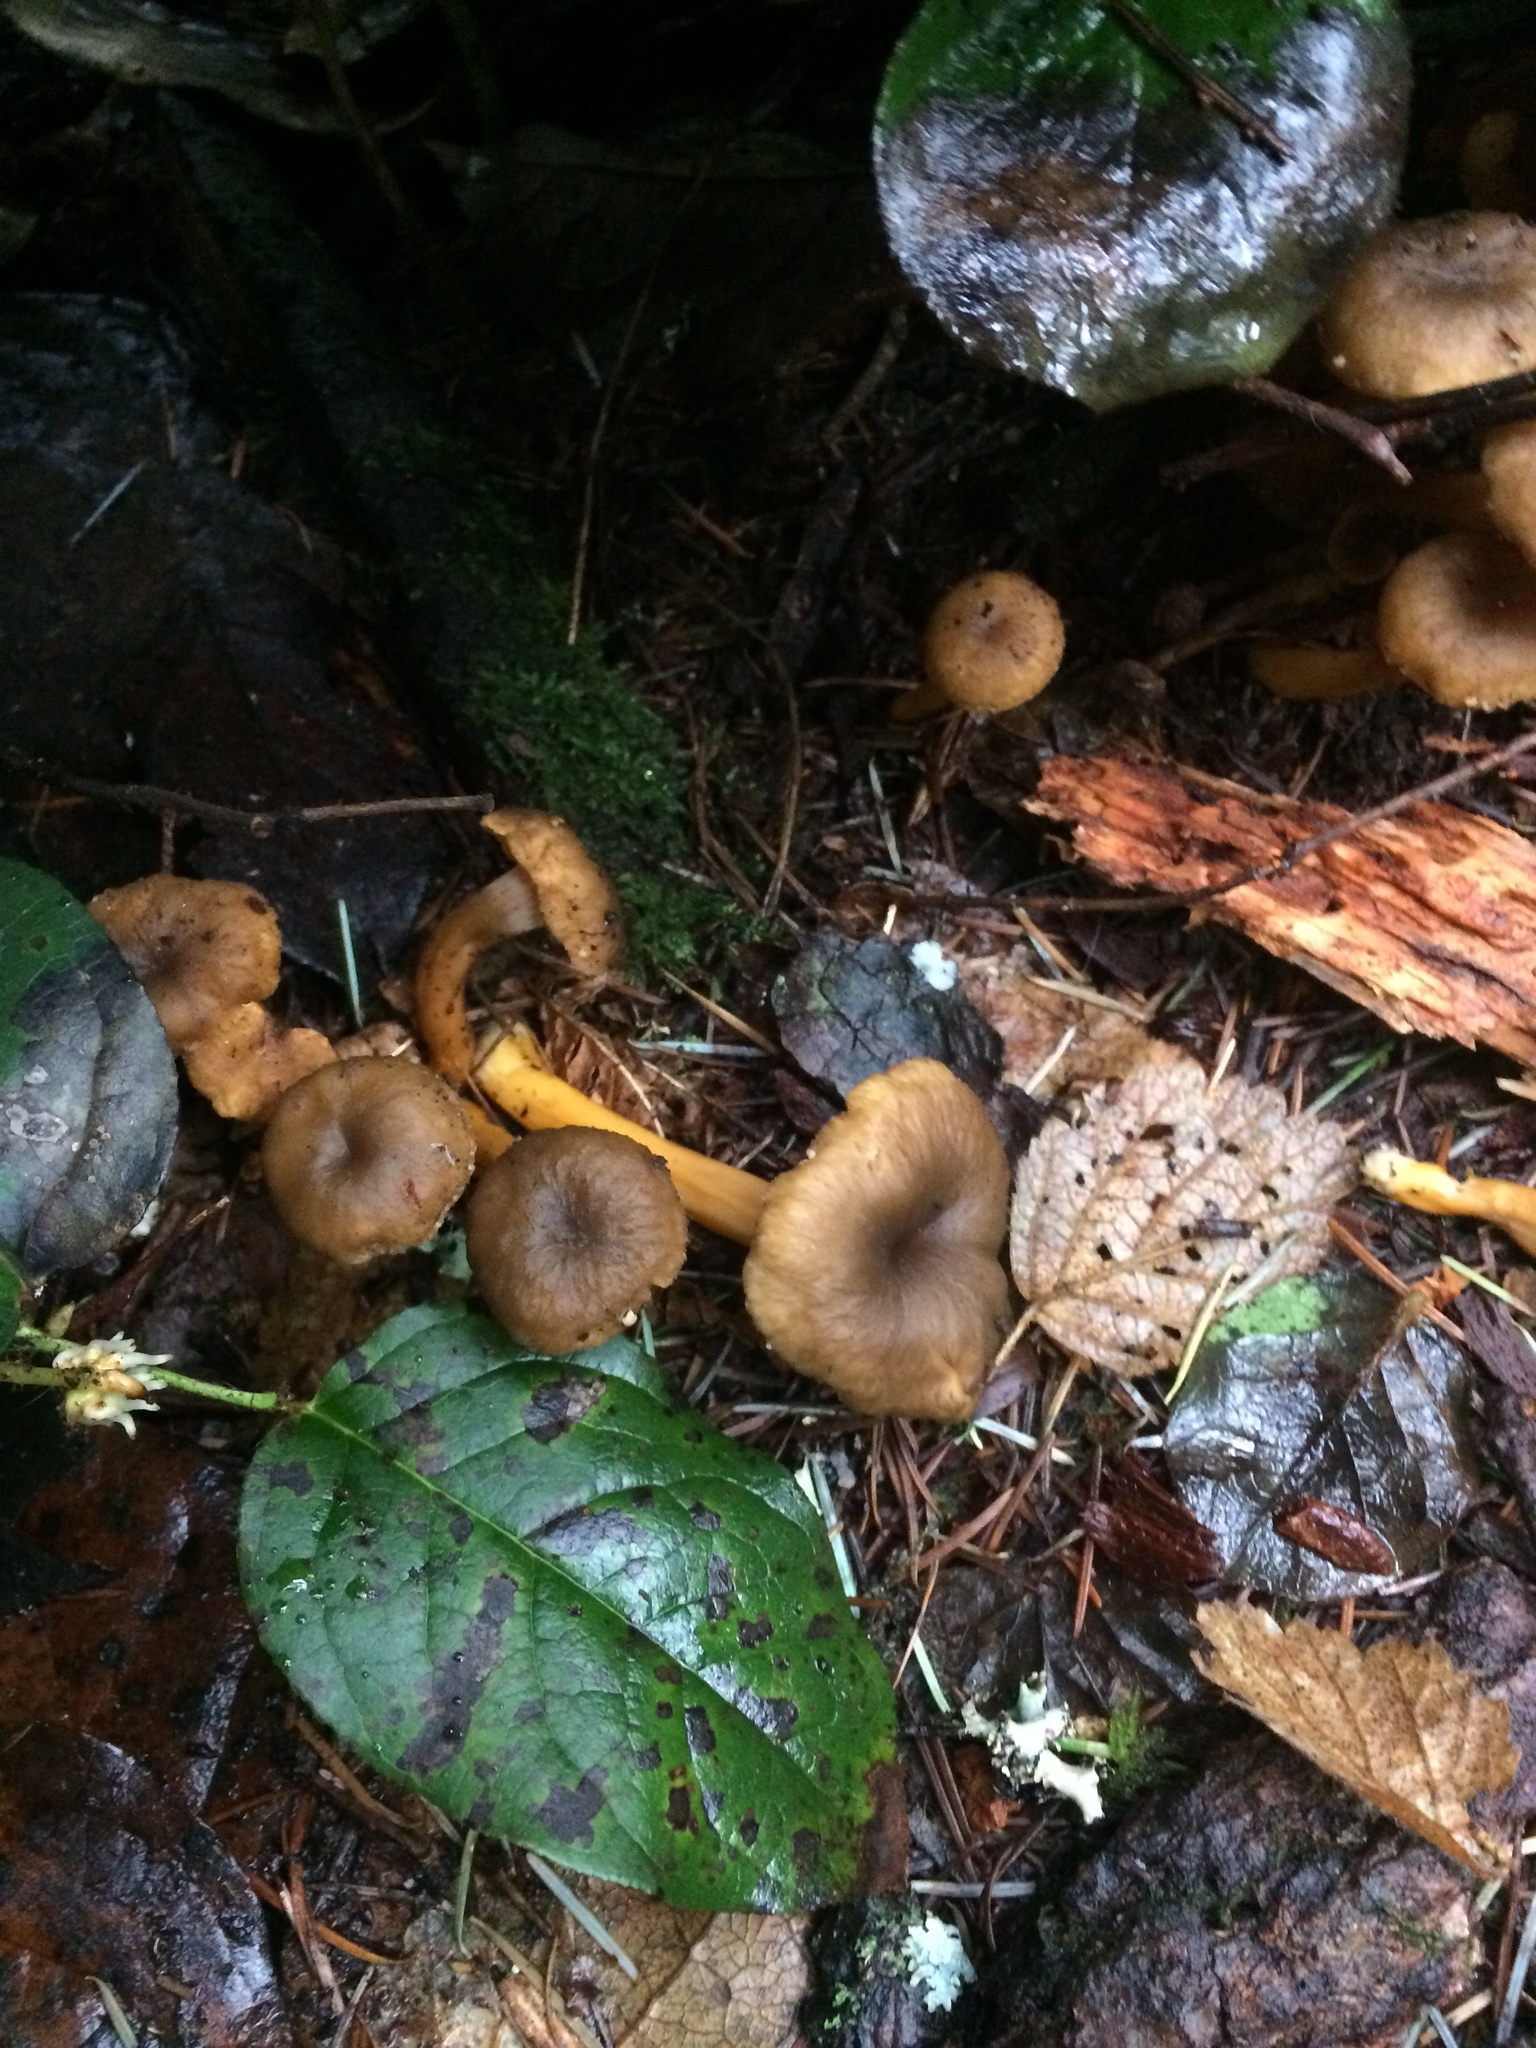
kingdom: Fungi
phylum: Basidiomycota
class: Agaricomycetes
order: Cantharellales
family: Hydnaceae
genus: Craterellus
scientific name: Craterellus tubaeformis
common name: Yellowfoot
